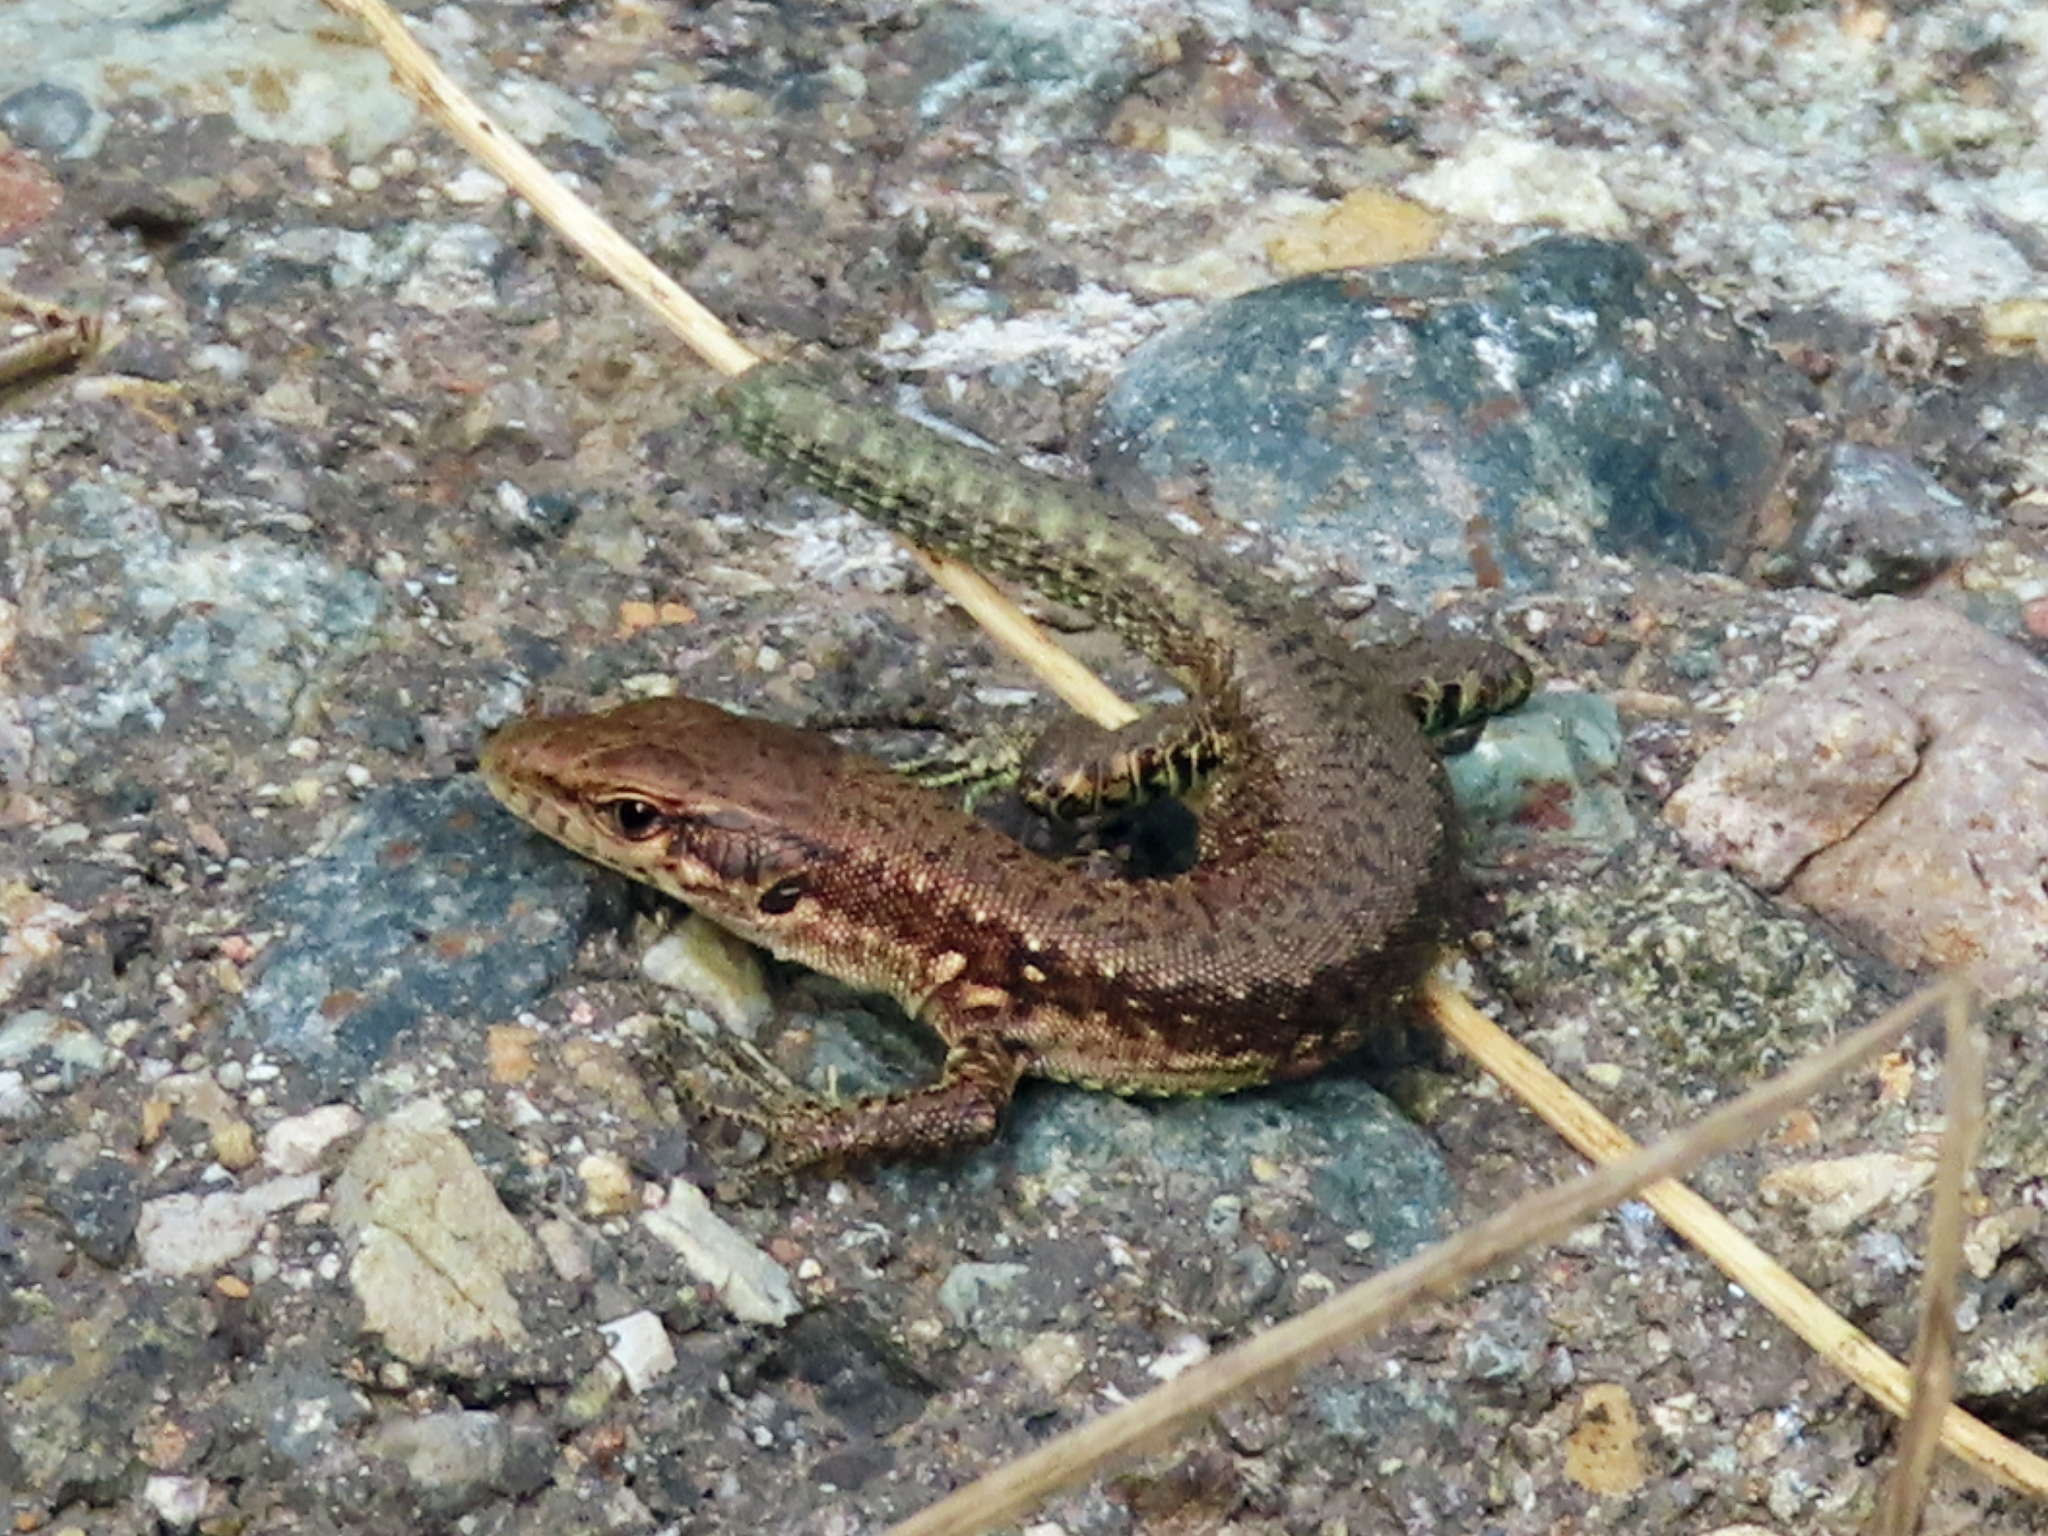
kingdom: Animalia
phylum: Chordata
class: Squamata
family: Lacertidae
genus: Darevskia
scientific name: Darevskia armeniaca
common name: Armenian lizard
